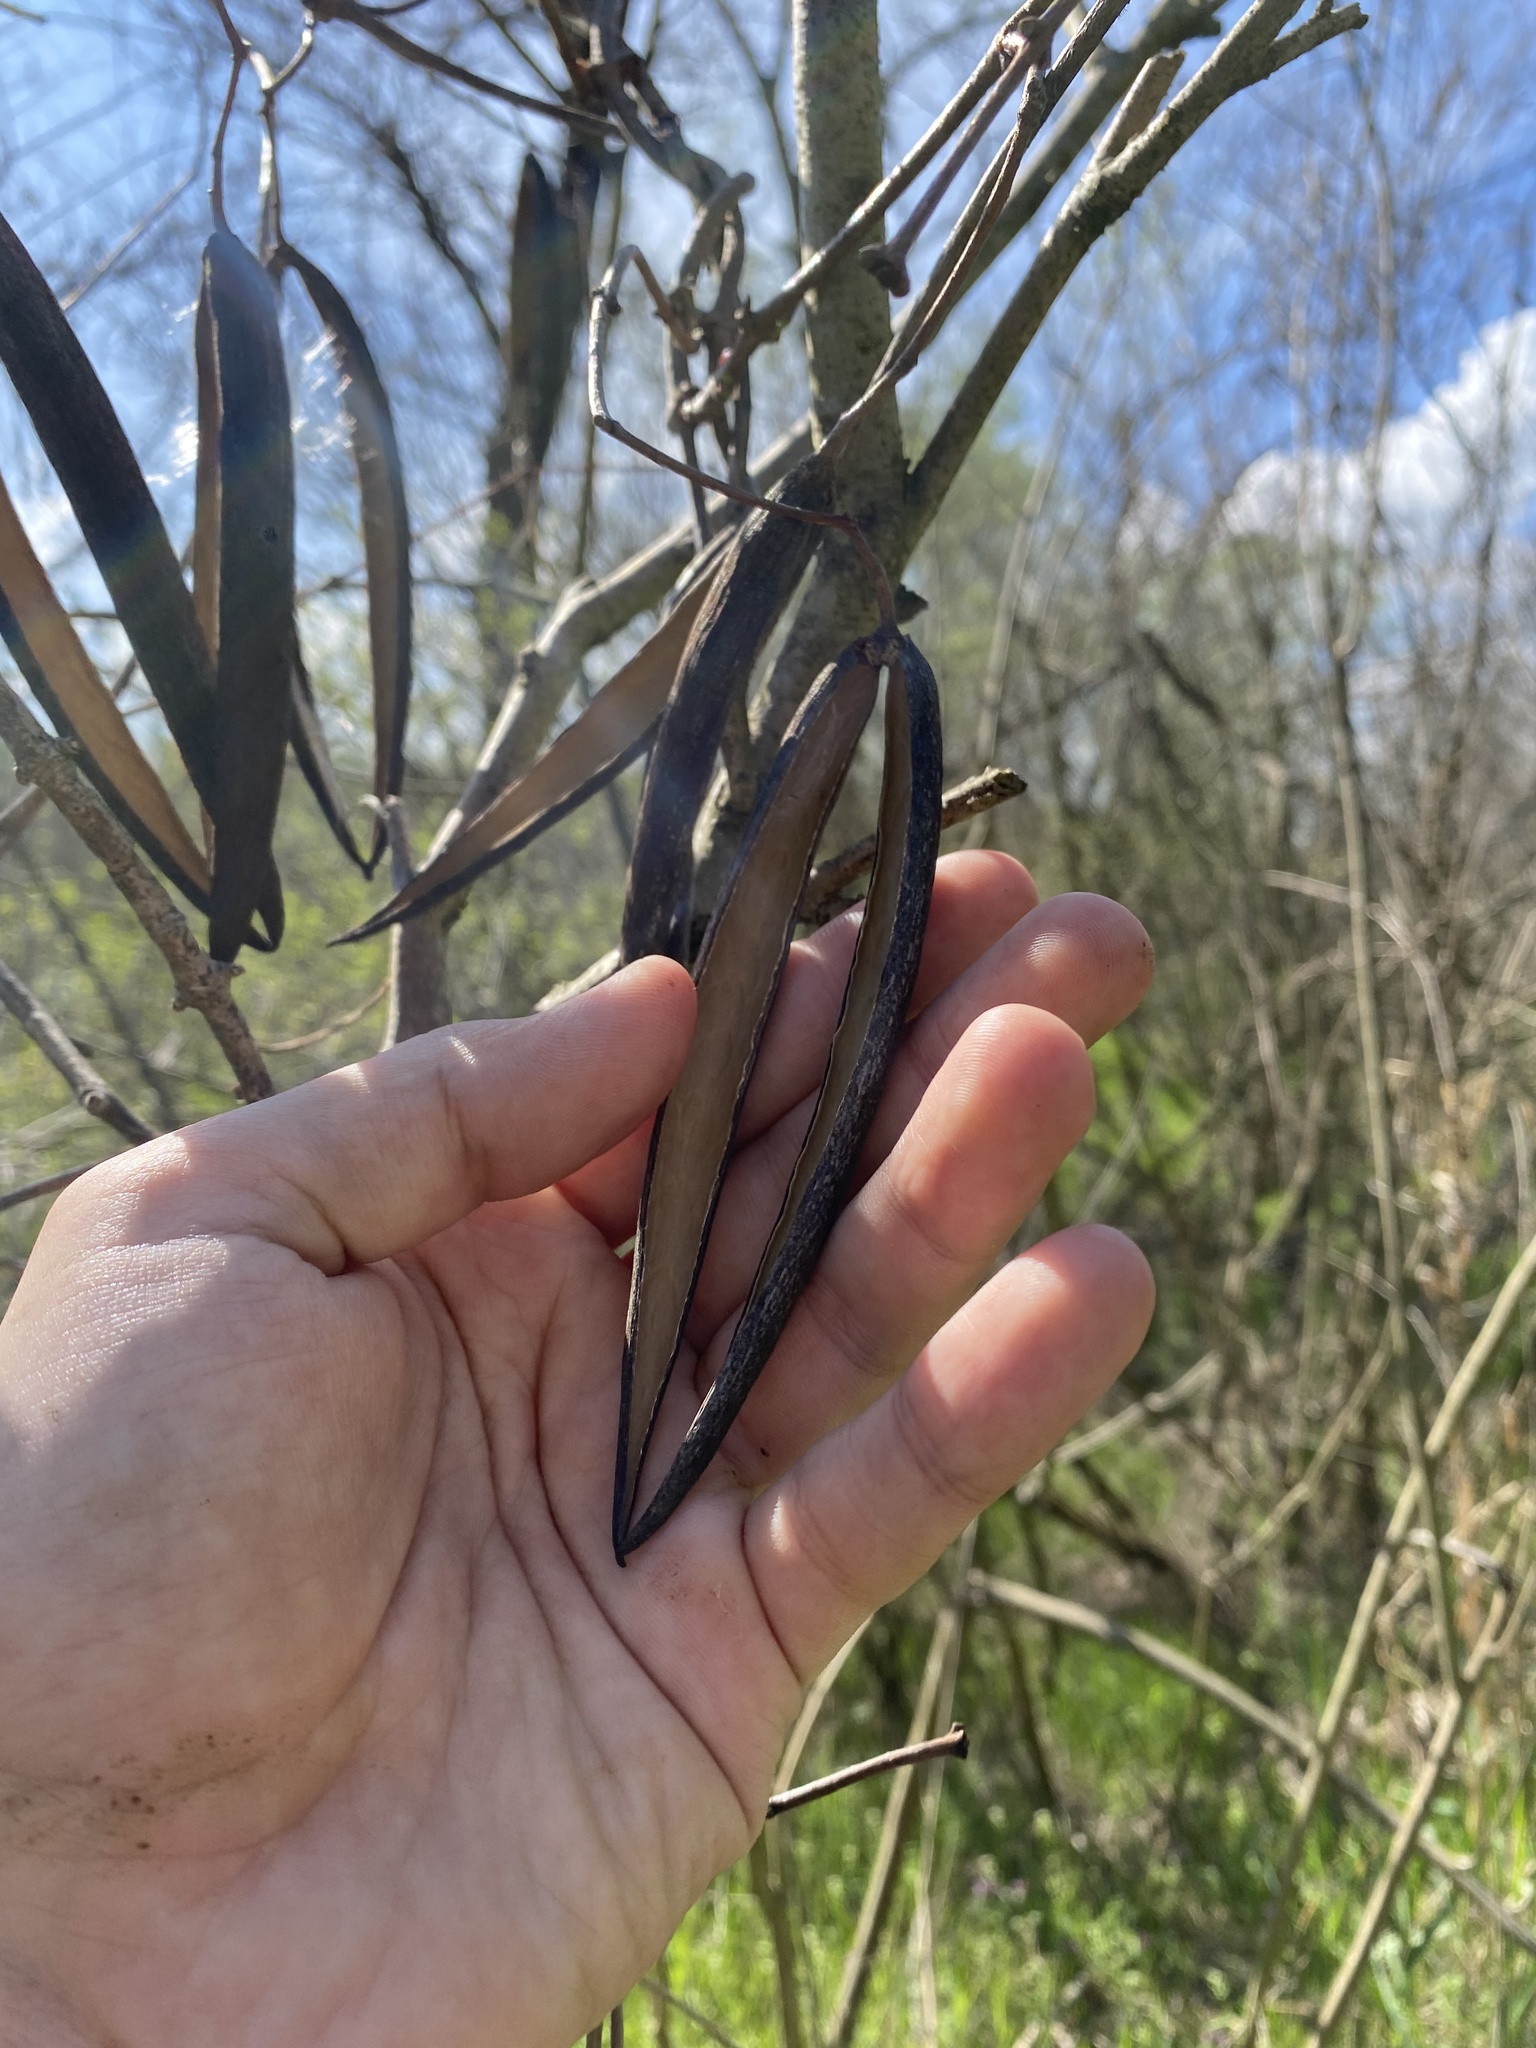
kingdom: Plantae
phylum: Tracheophyta
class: Magnoliopsida
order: Gentianales
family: Apocynaceae
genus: Periploca
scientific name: Periploca graeca
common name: Silkvine
